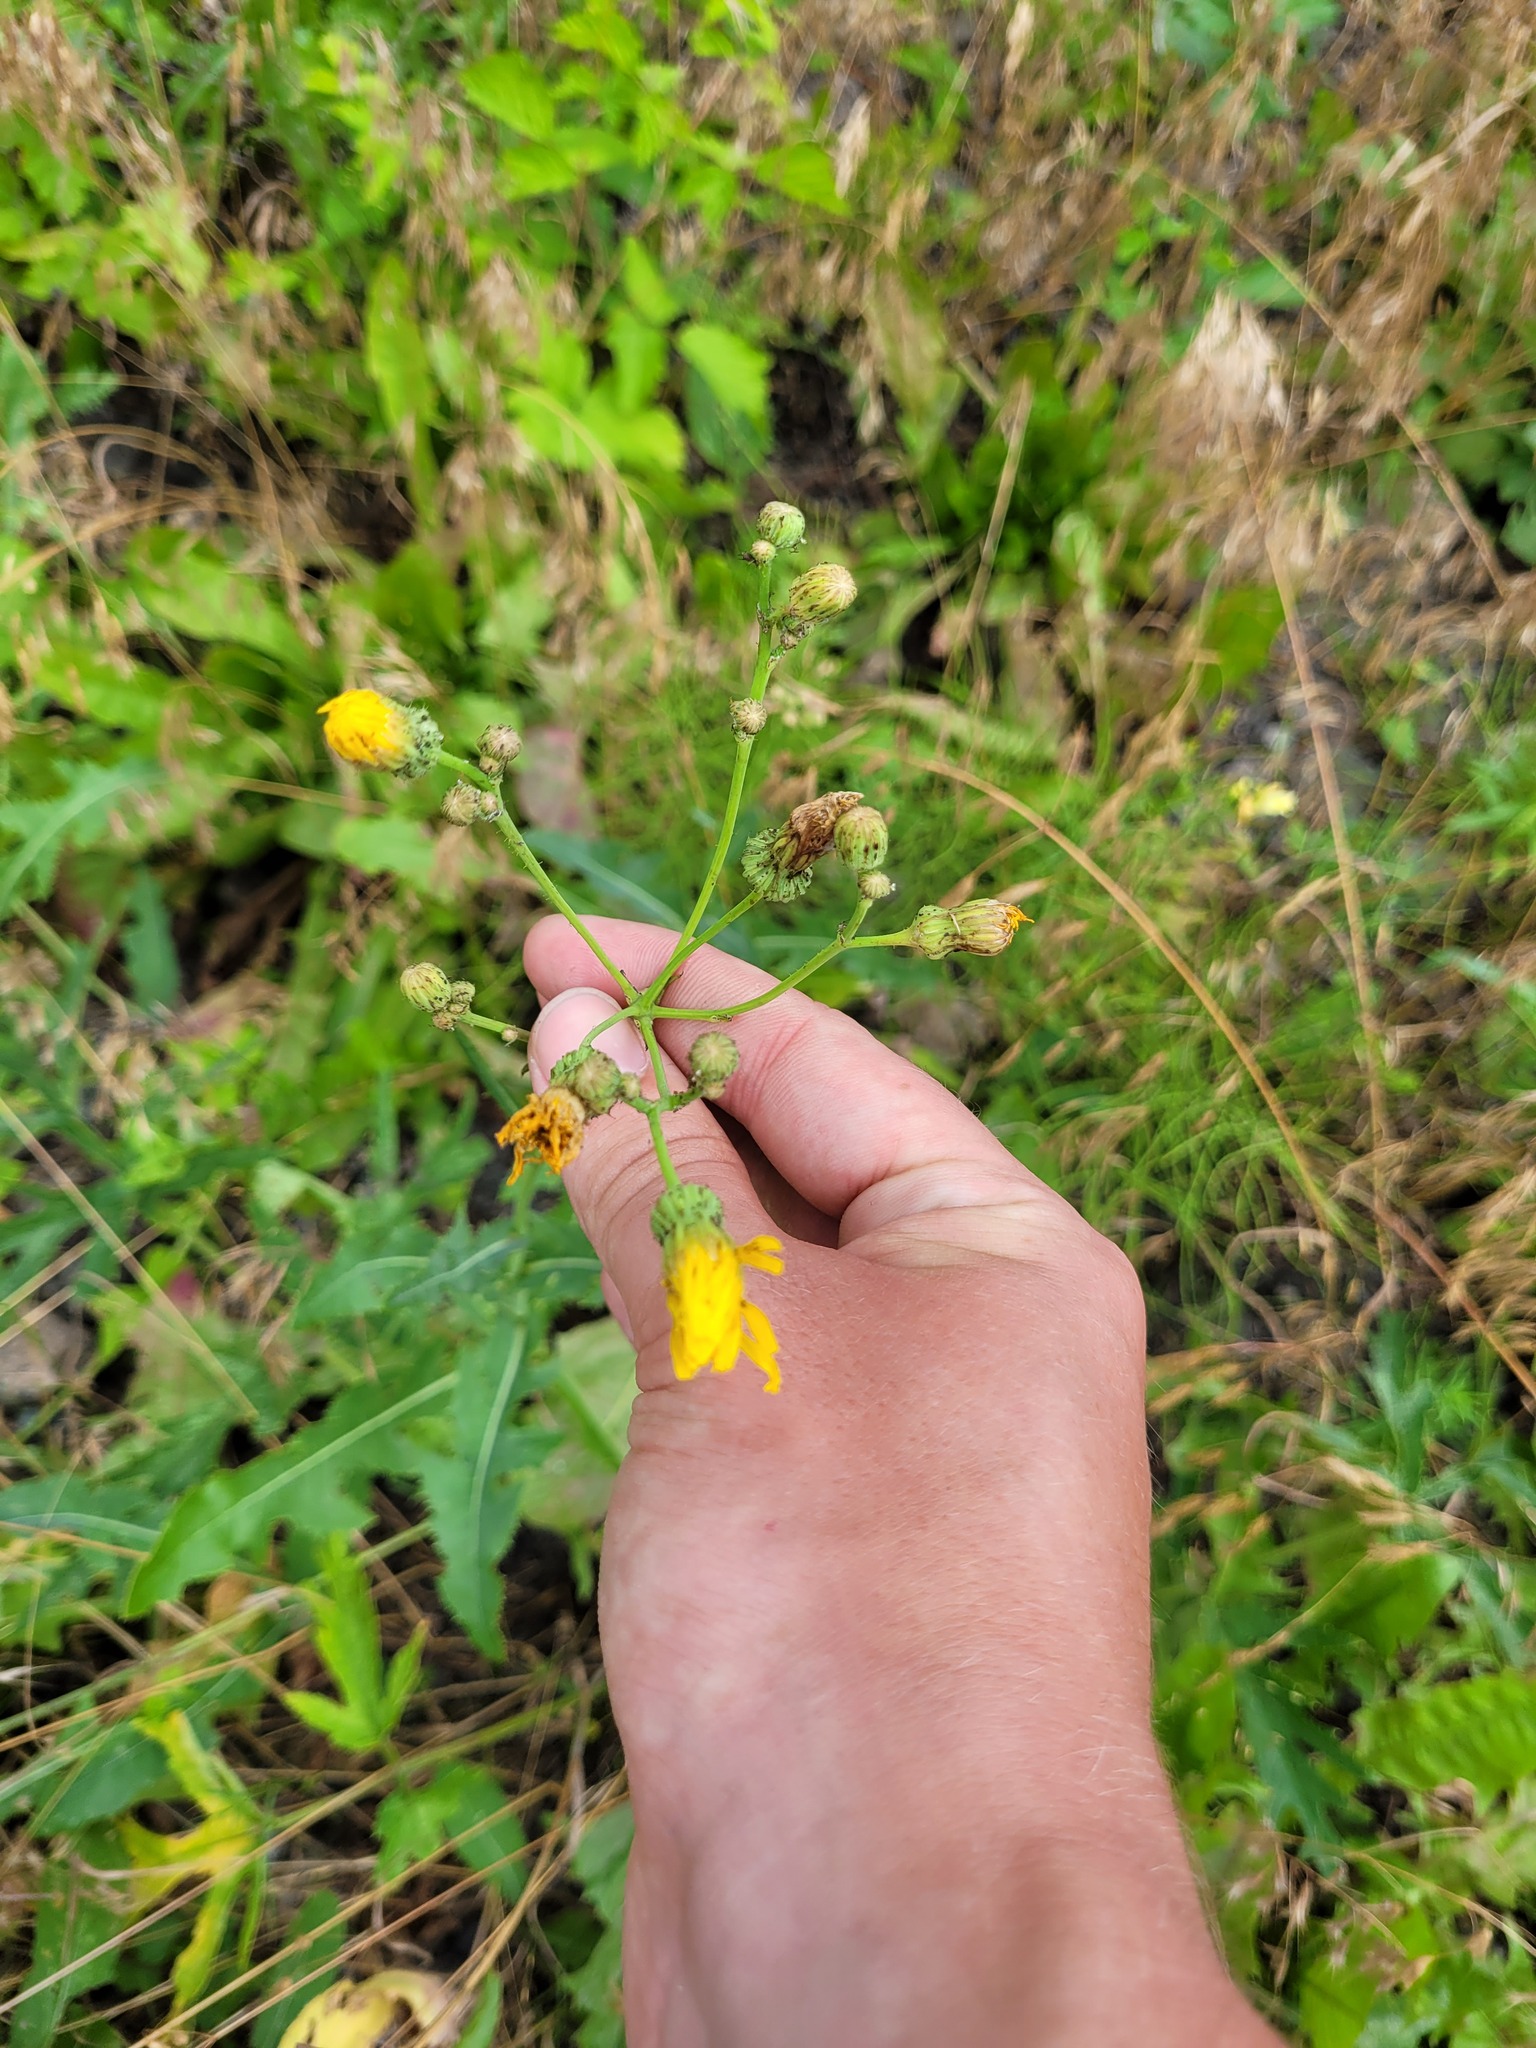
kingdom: Plantae
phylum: Tracheophyta
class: Magnoliopsida
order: Asterales
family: Asteraceae
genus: Sonchus
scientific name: Sonchus arvensis
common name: Perennial sow-thistle
